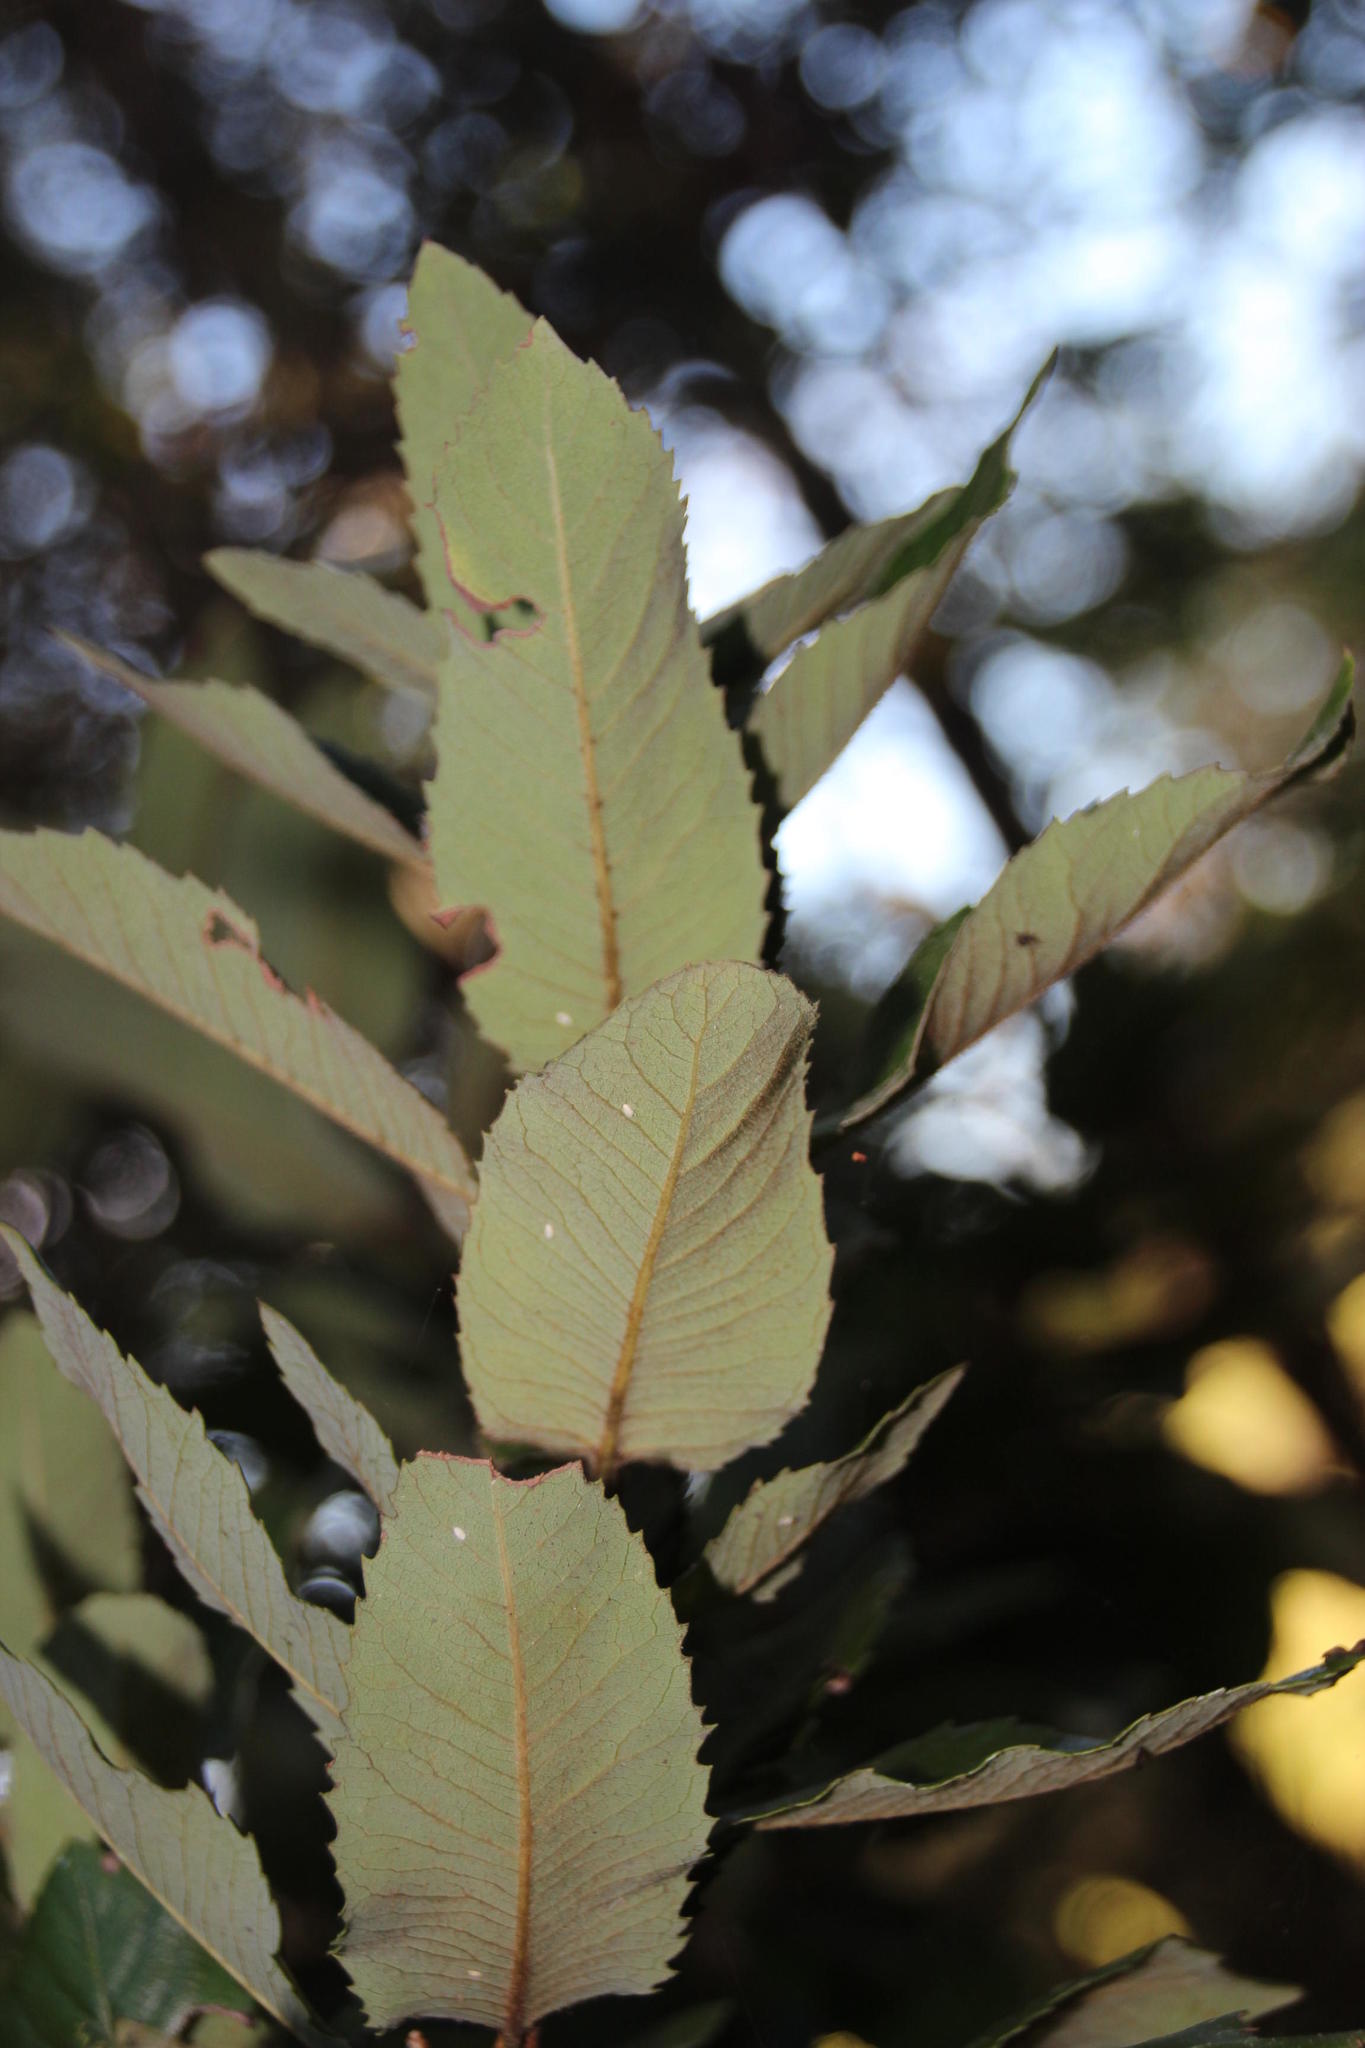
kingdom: Plantae
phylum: Tracheophyta
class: Magnoliopsida
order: Oxalidales
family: Cunoniaceae
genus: Eucryphia
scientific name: Eucryphia cordifolia
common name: Ulmo
